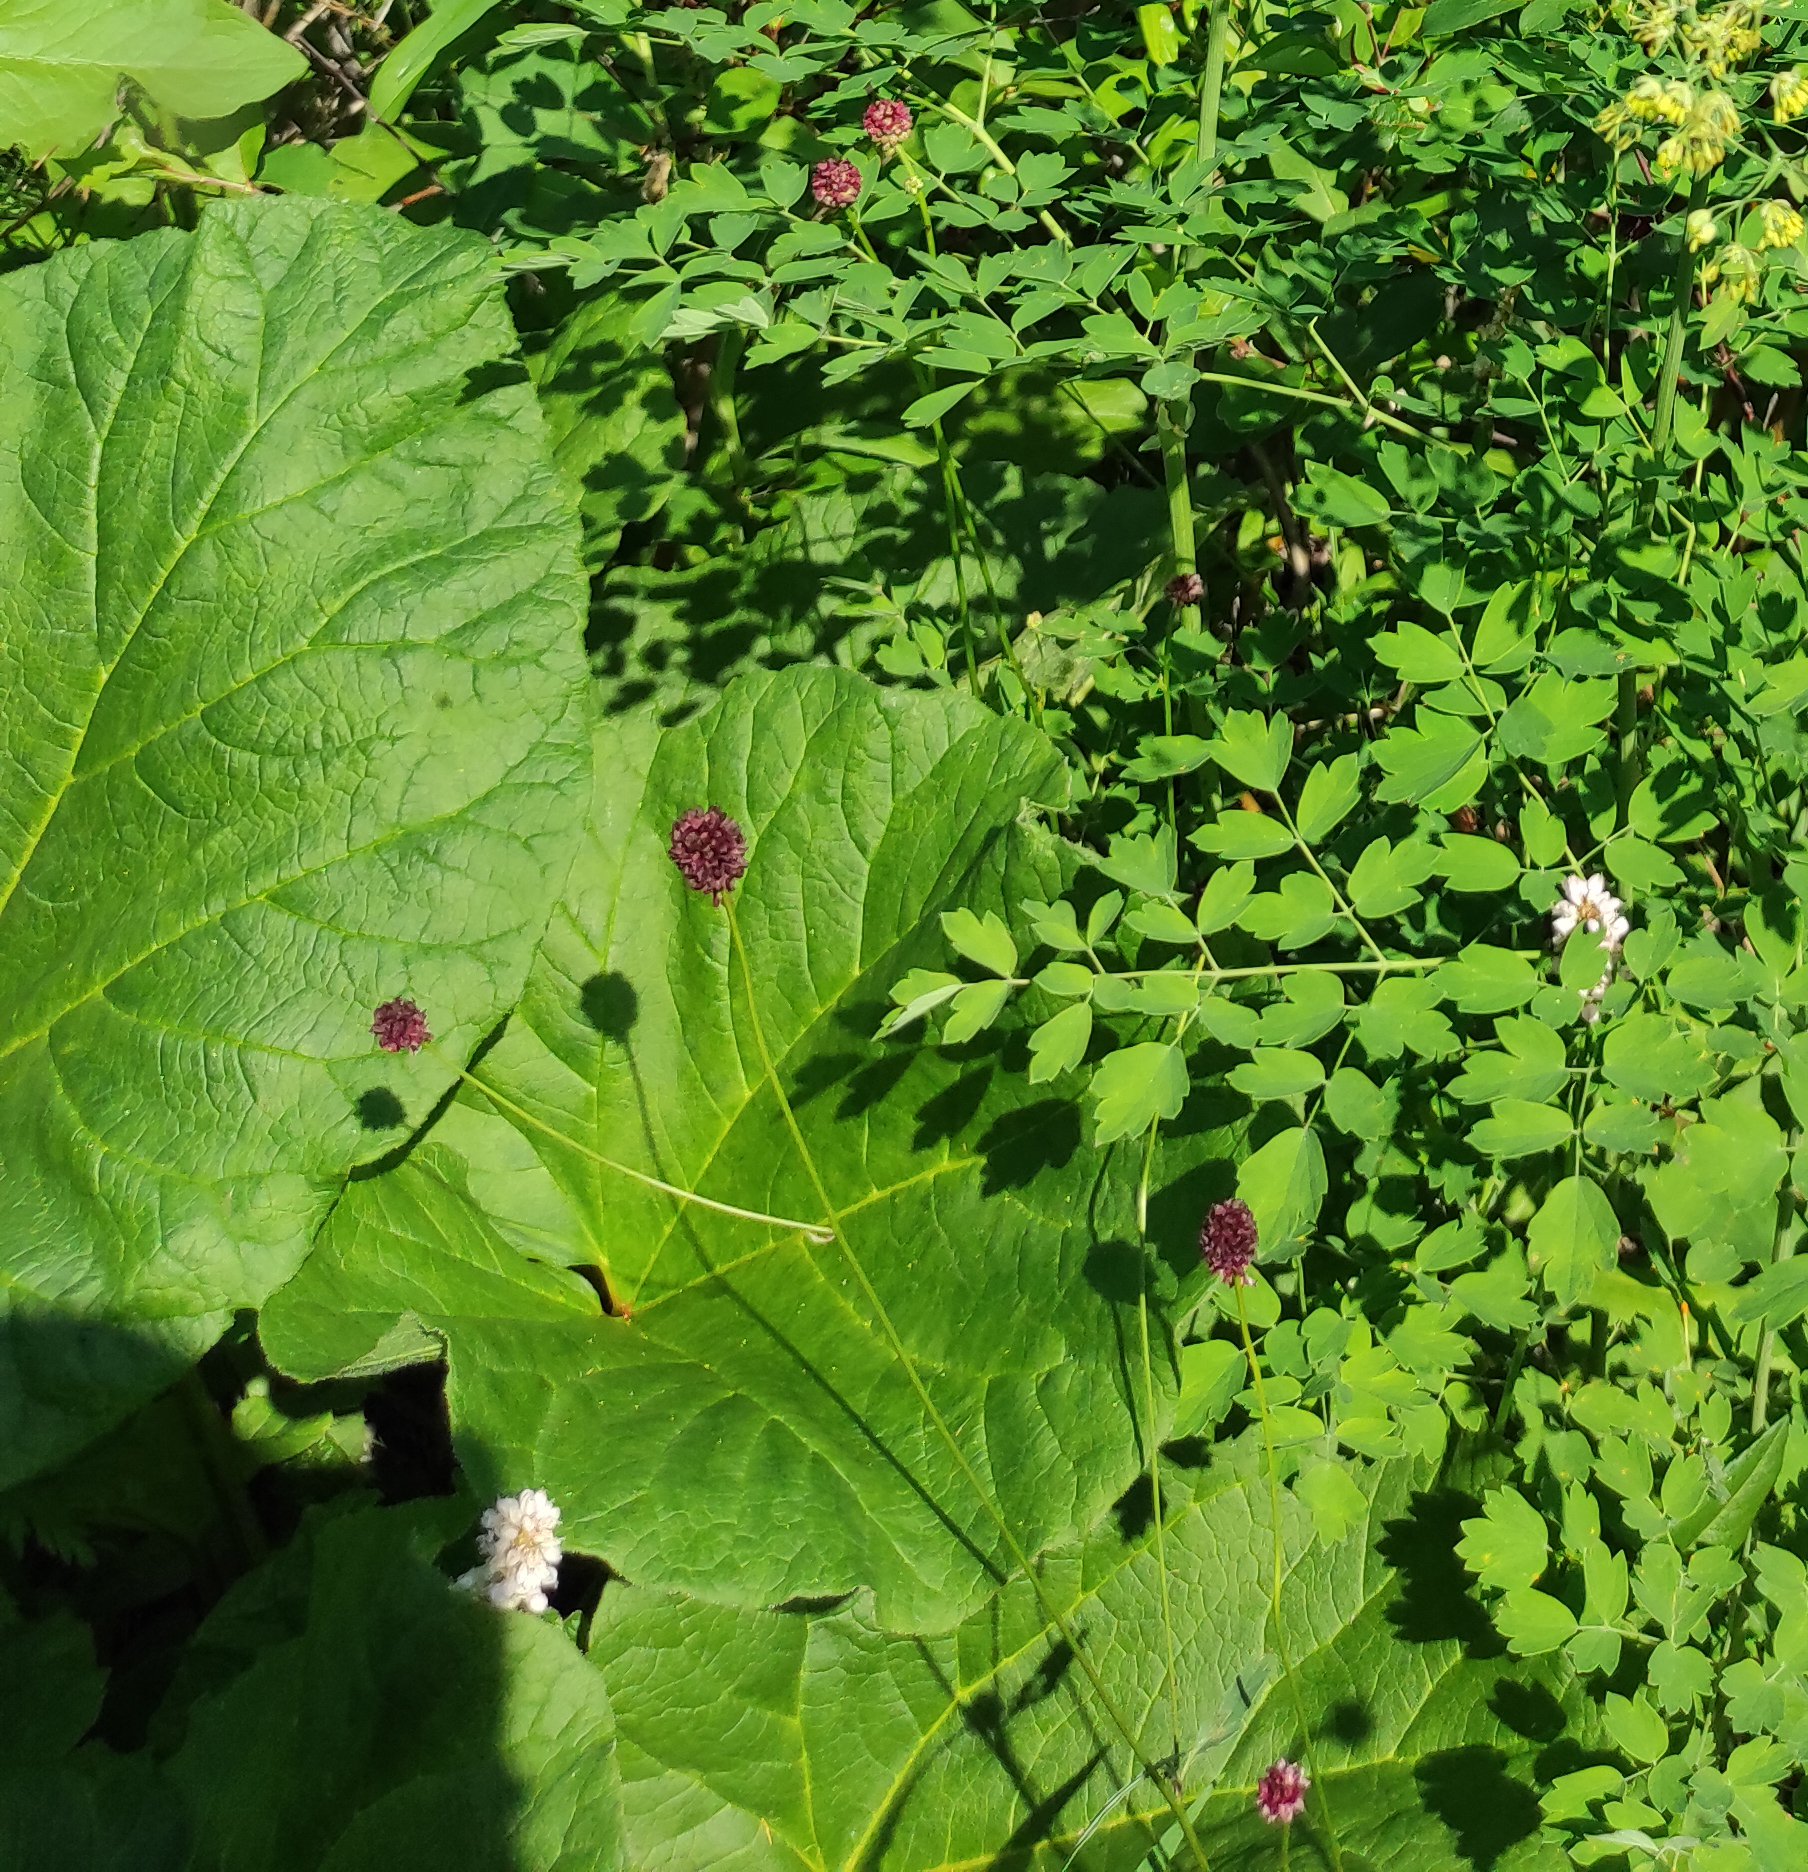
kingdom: Plantae
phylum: Tracheophyta
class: Magnoliopsida
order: Rosales
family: Rosaceae
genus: Sanguisorba
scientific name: Sanguisorba officinalis
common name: Great burnet
